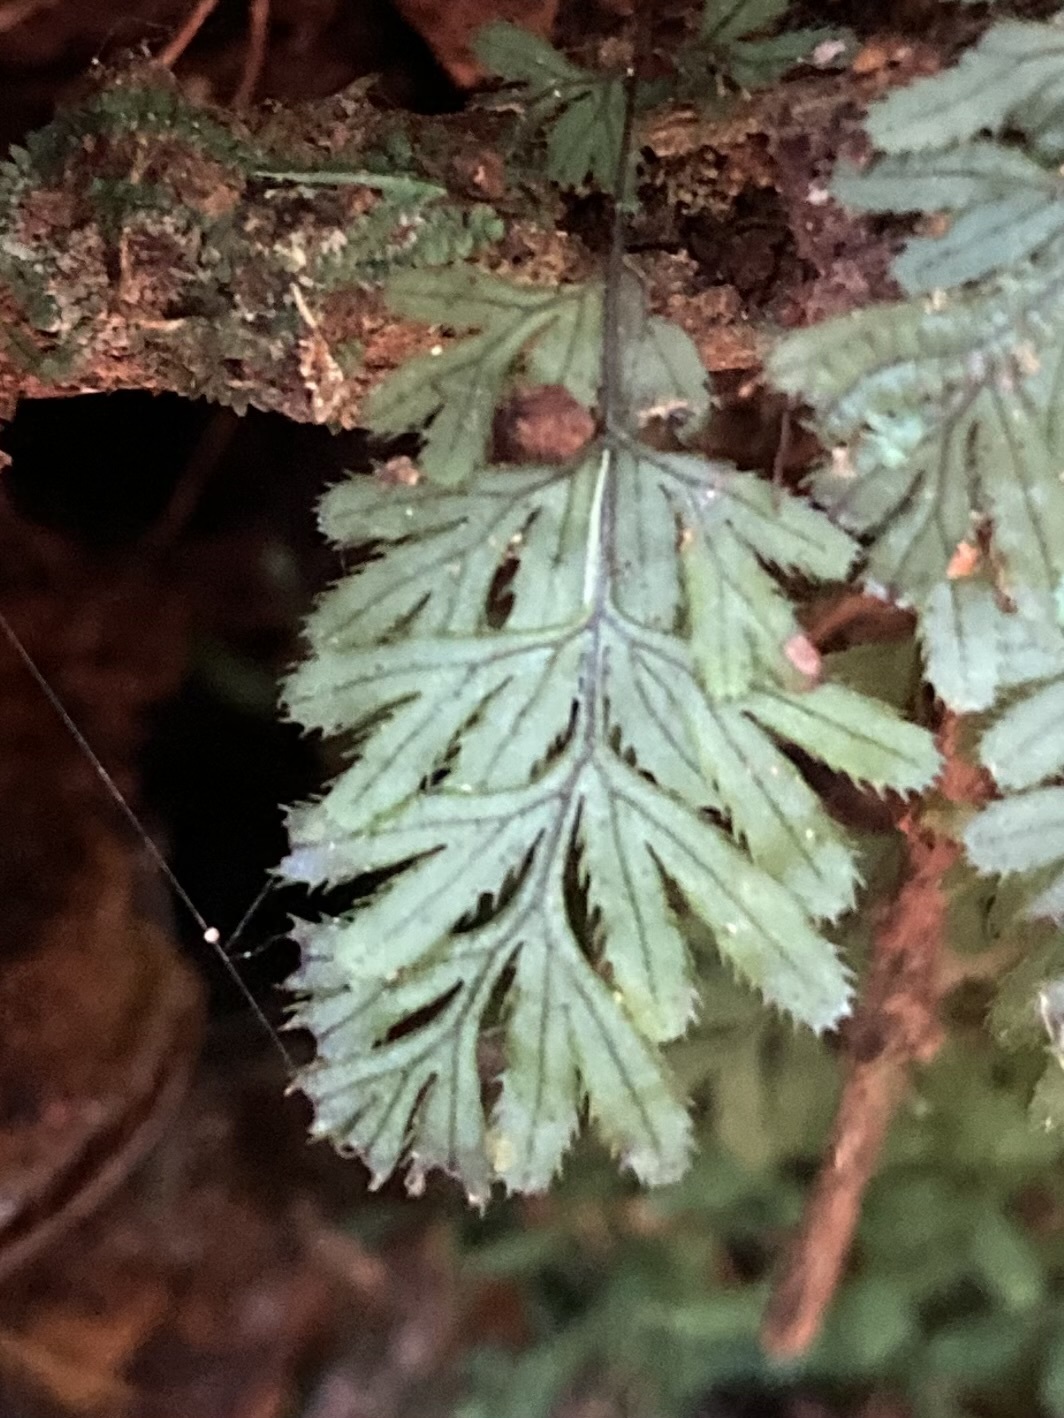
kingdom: Plantae
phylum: Tracheophyta
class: Polypodiopsida
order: Hymenophyllales
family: Hymenophyllaceae
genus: Hymenophyllum
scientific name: Hymenophyllum revolutum
